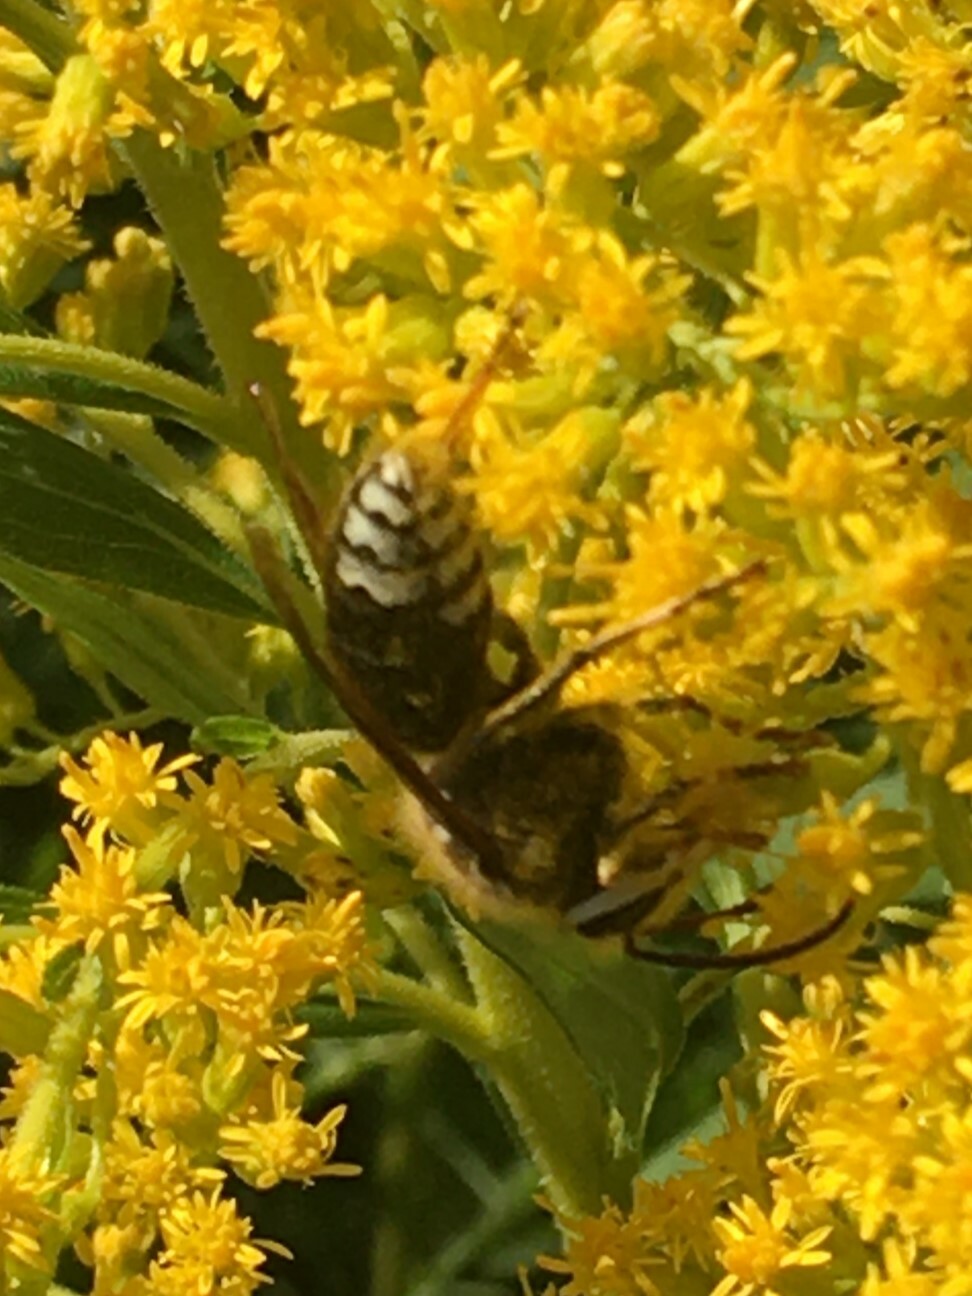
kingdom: Animalia
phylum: Arthropoda
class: Insecta
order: Hymenoptera
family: Vespidae
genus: Dolichovespula
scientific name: Dolichovespula maculata
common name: Bald-faced hornet
